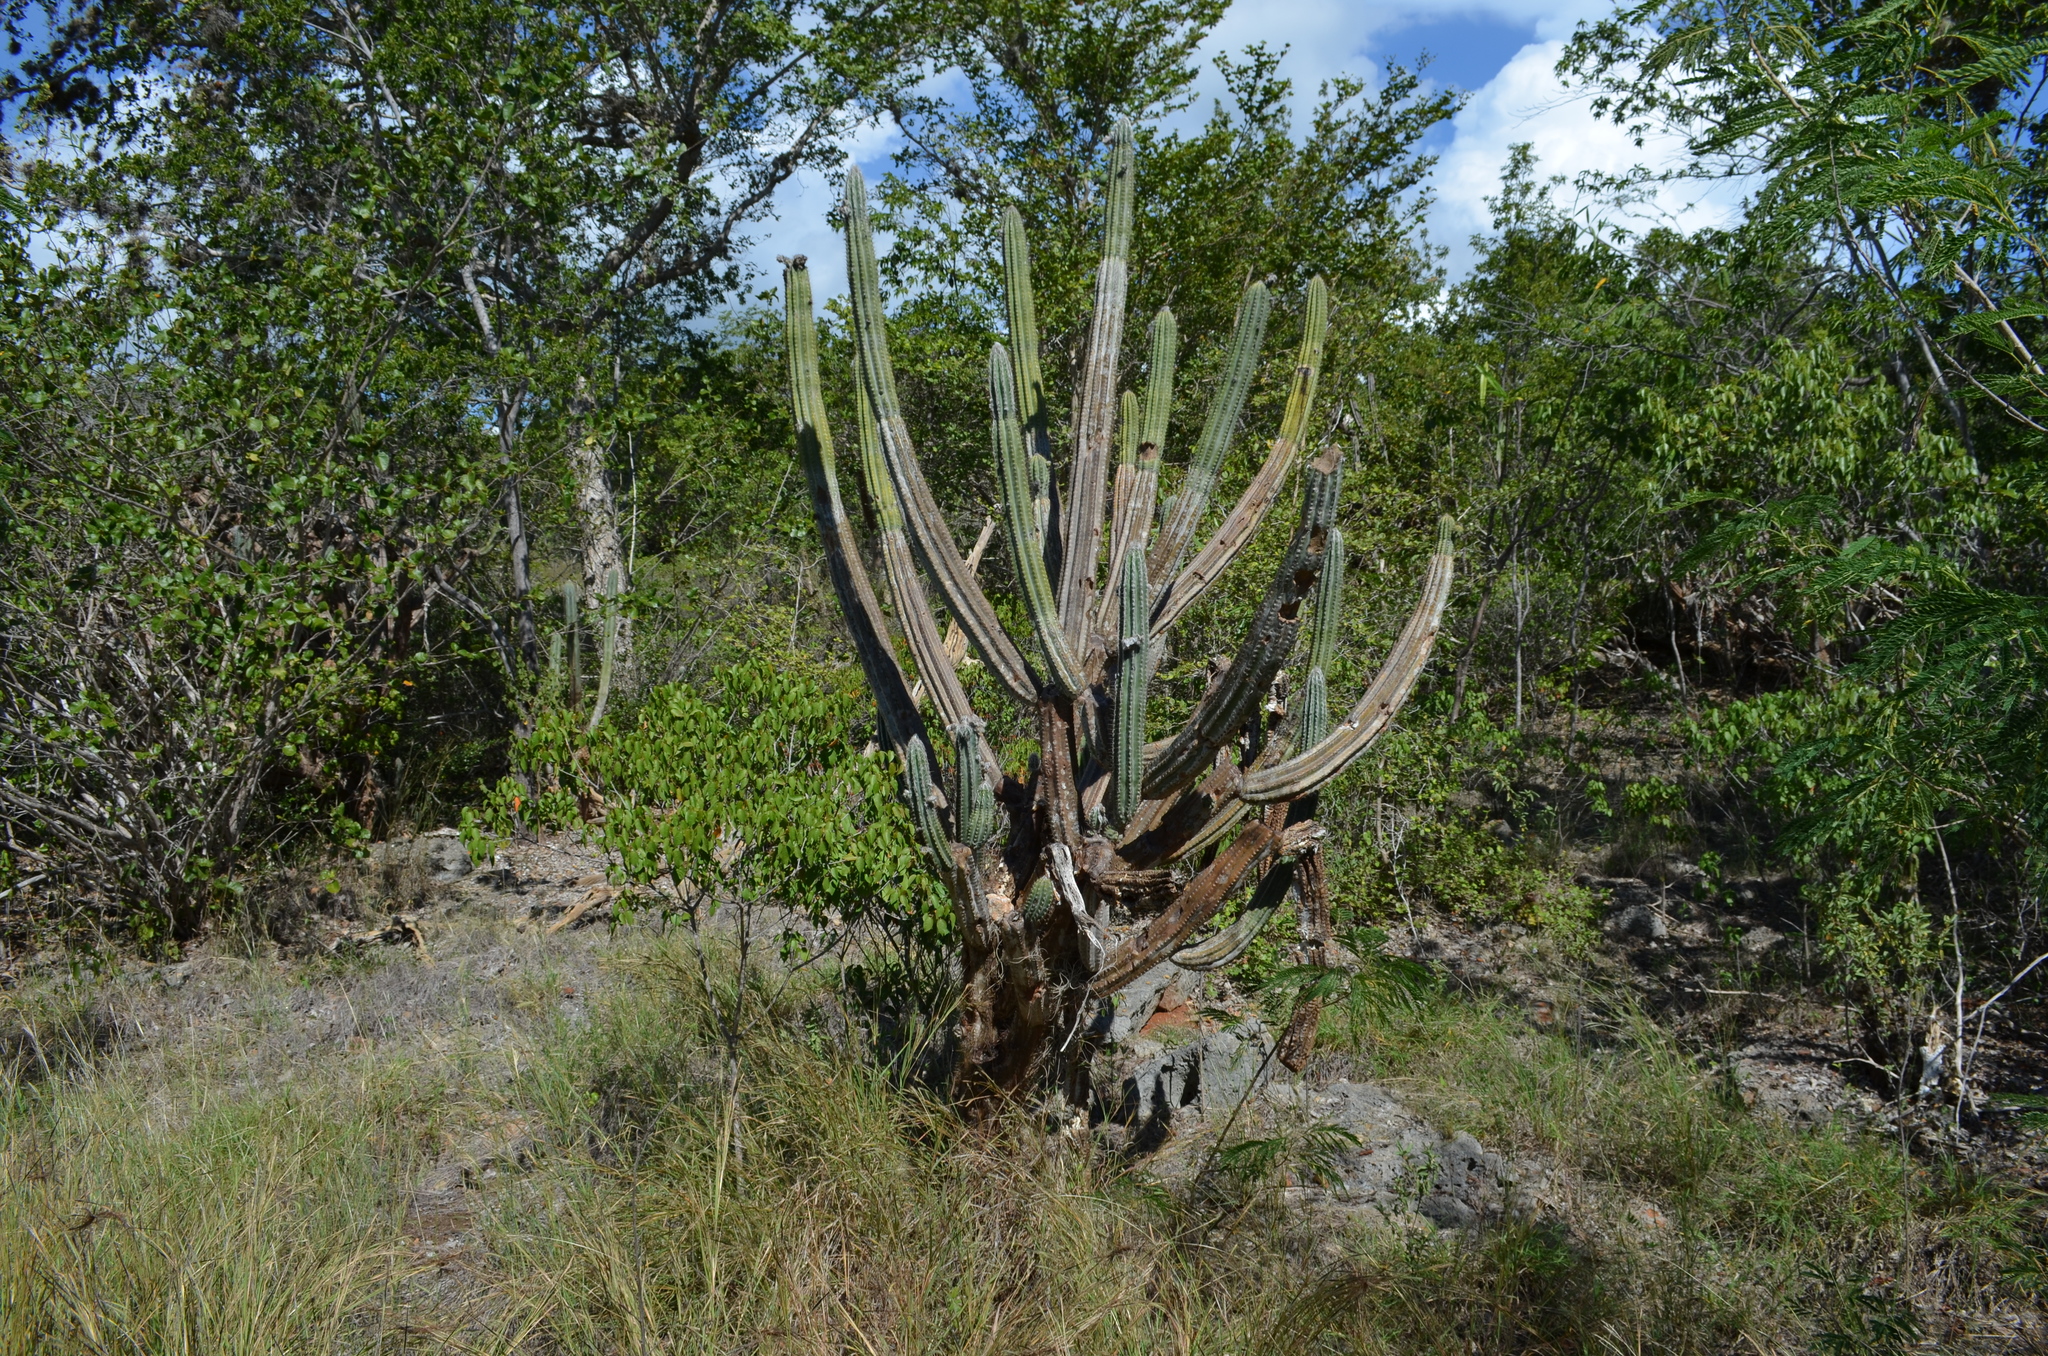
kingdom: Plantae
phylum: Tracheophyta
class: Magnoliopsida
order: Caryophyllales
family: Cactaceae
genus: Pilosocereus
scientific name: Pilosocereus armatus
